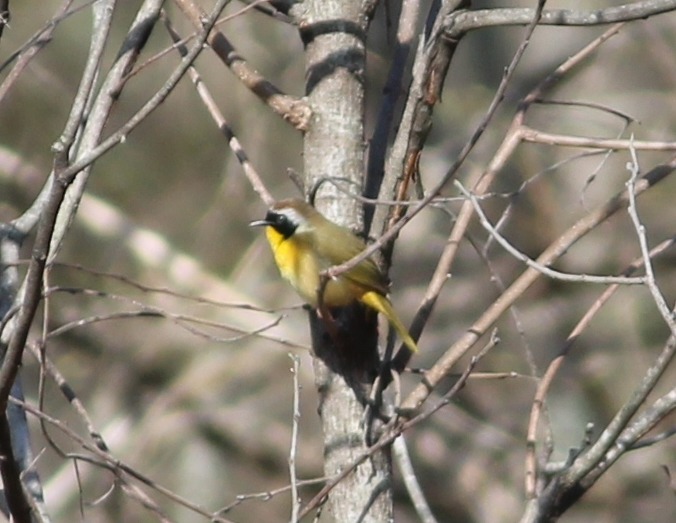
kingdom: Animalia
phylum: Chordata
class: Aves
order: Passeriformes
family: Parulidae
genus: Geothlypis
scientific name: Geothlypis trichas
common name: Common yellowthroat
